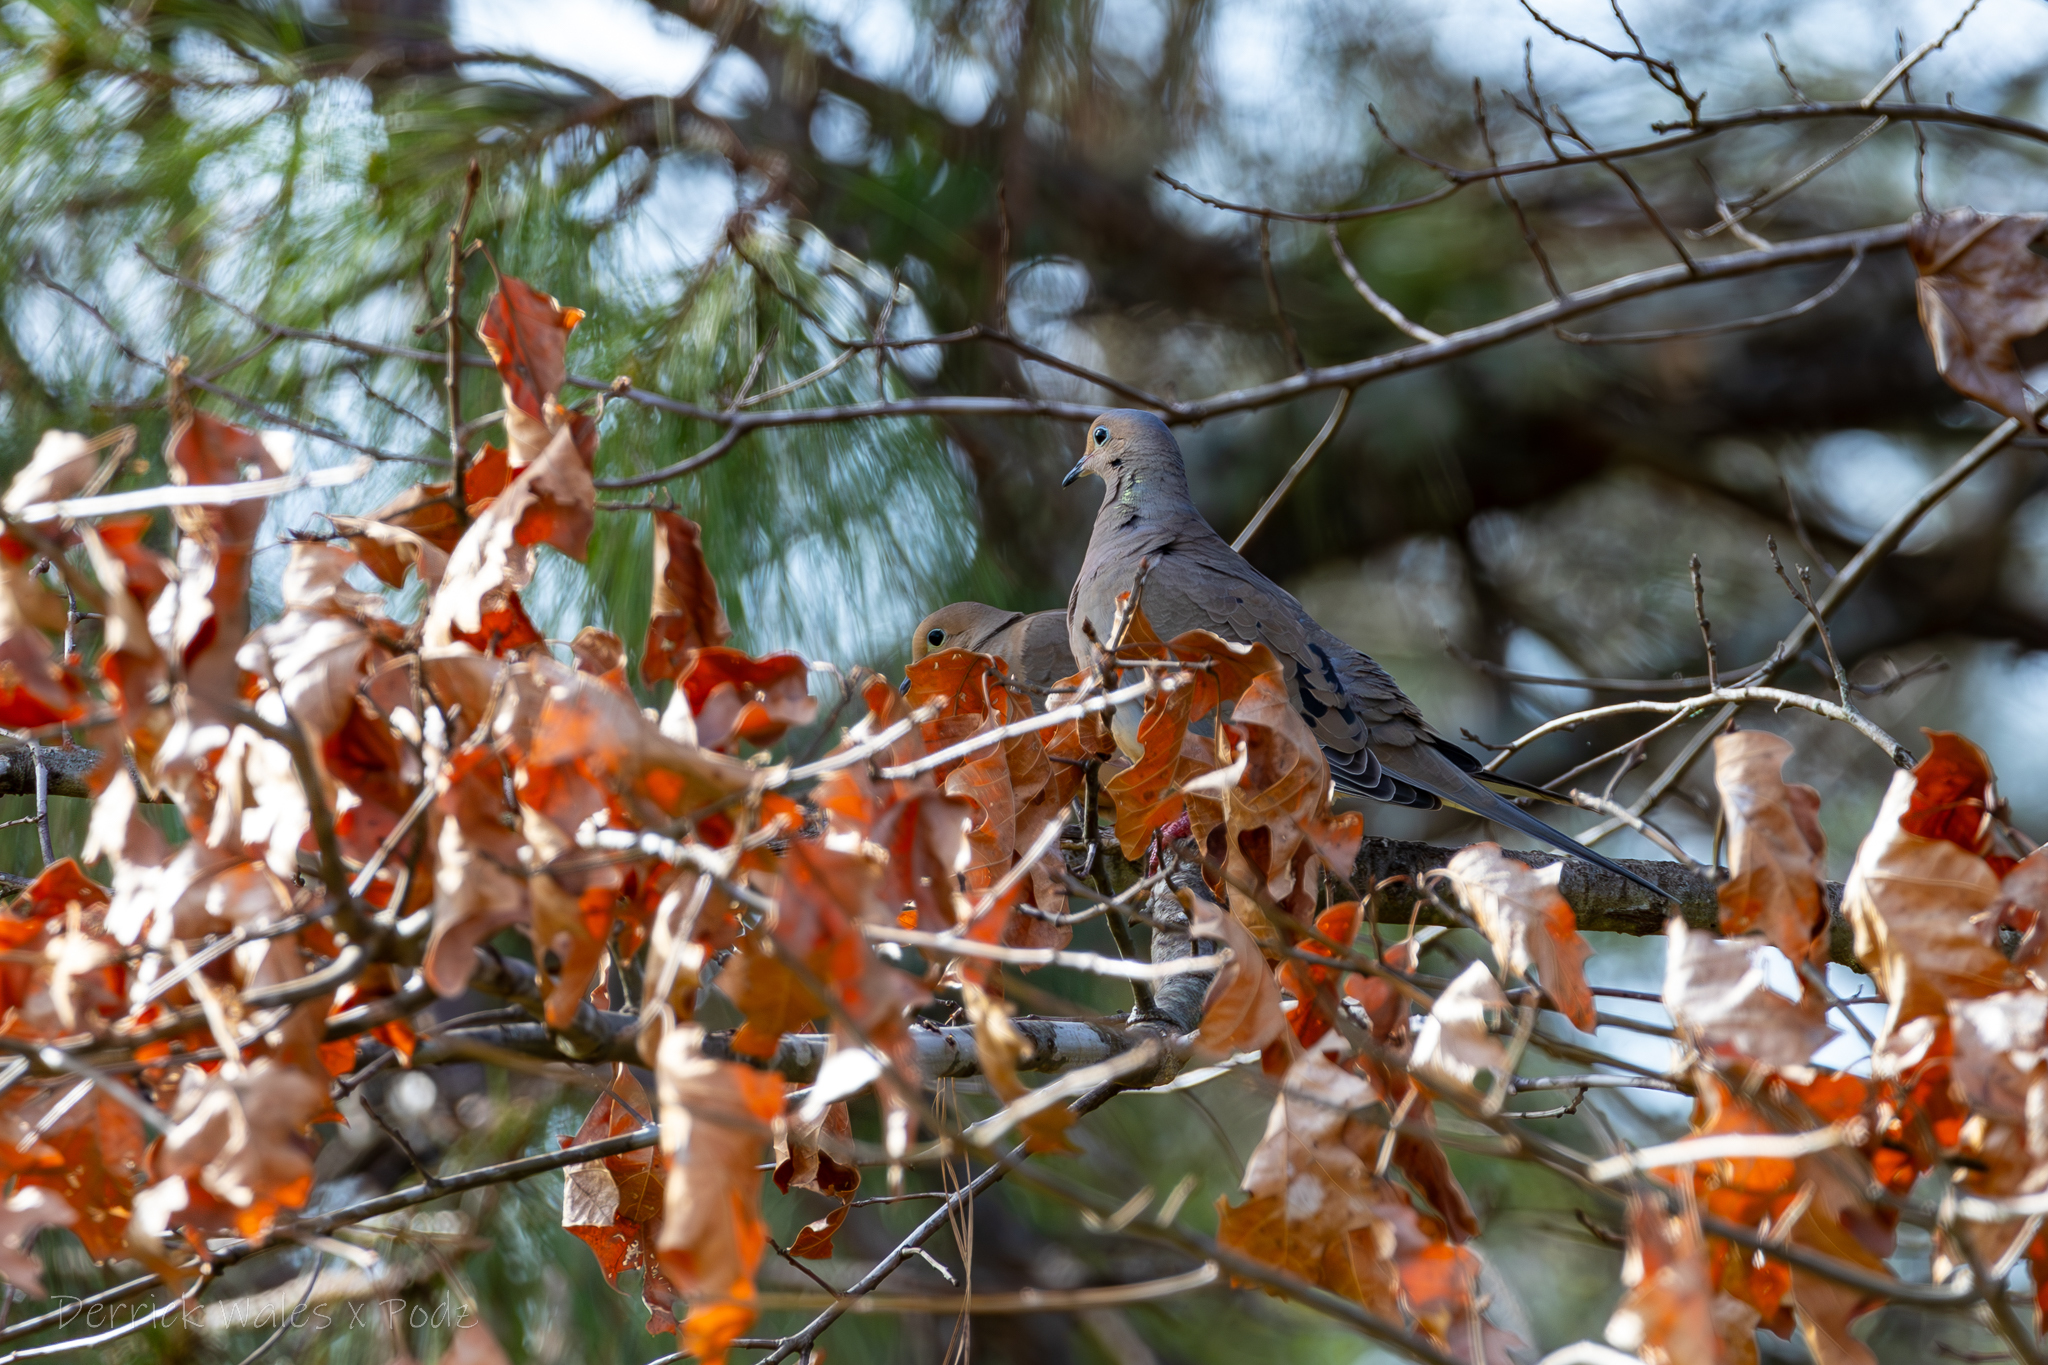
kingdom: Animalia
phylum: Chordata
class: Aves
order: Columbiformes
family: Columbidae
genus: Zenaida
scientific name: Zenaida macroura
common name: Mourning dove
